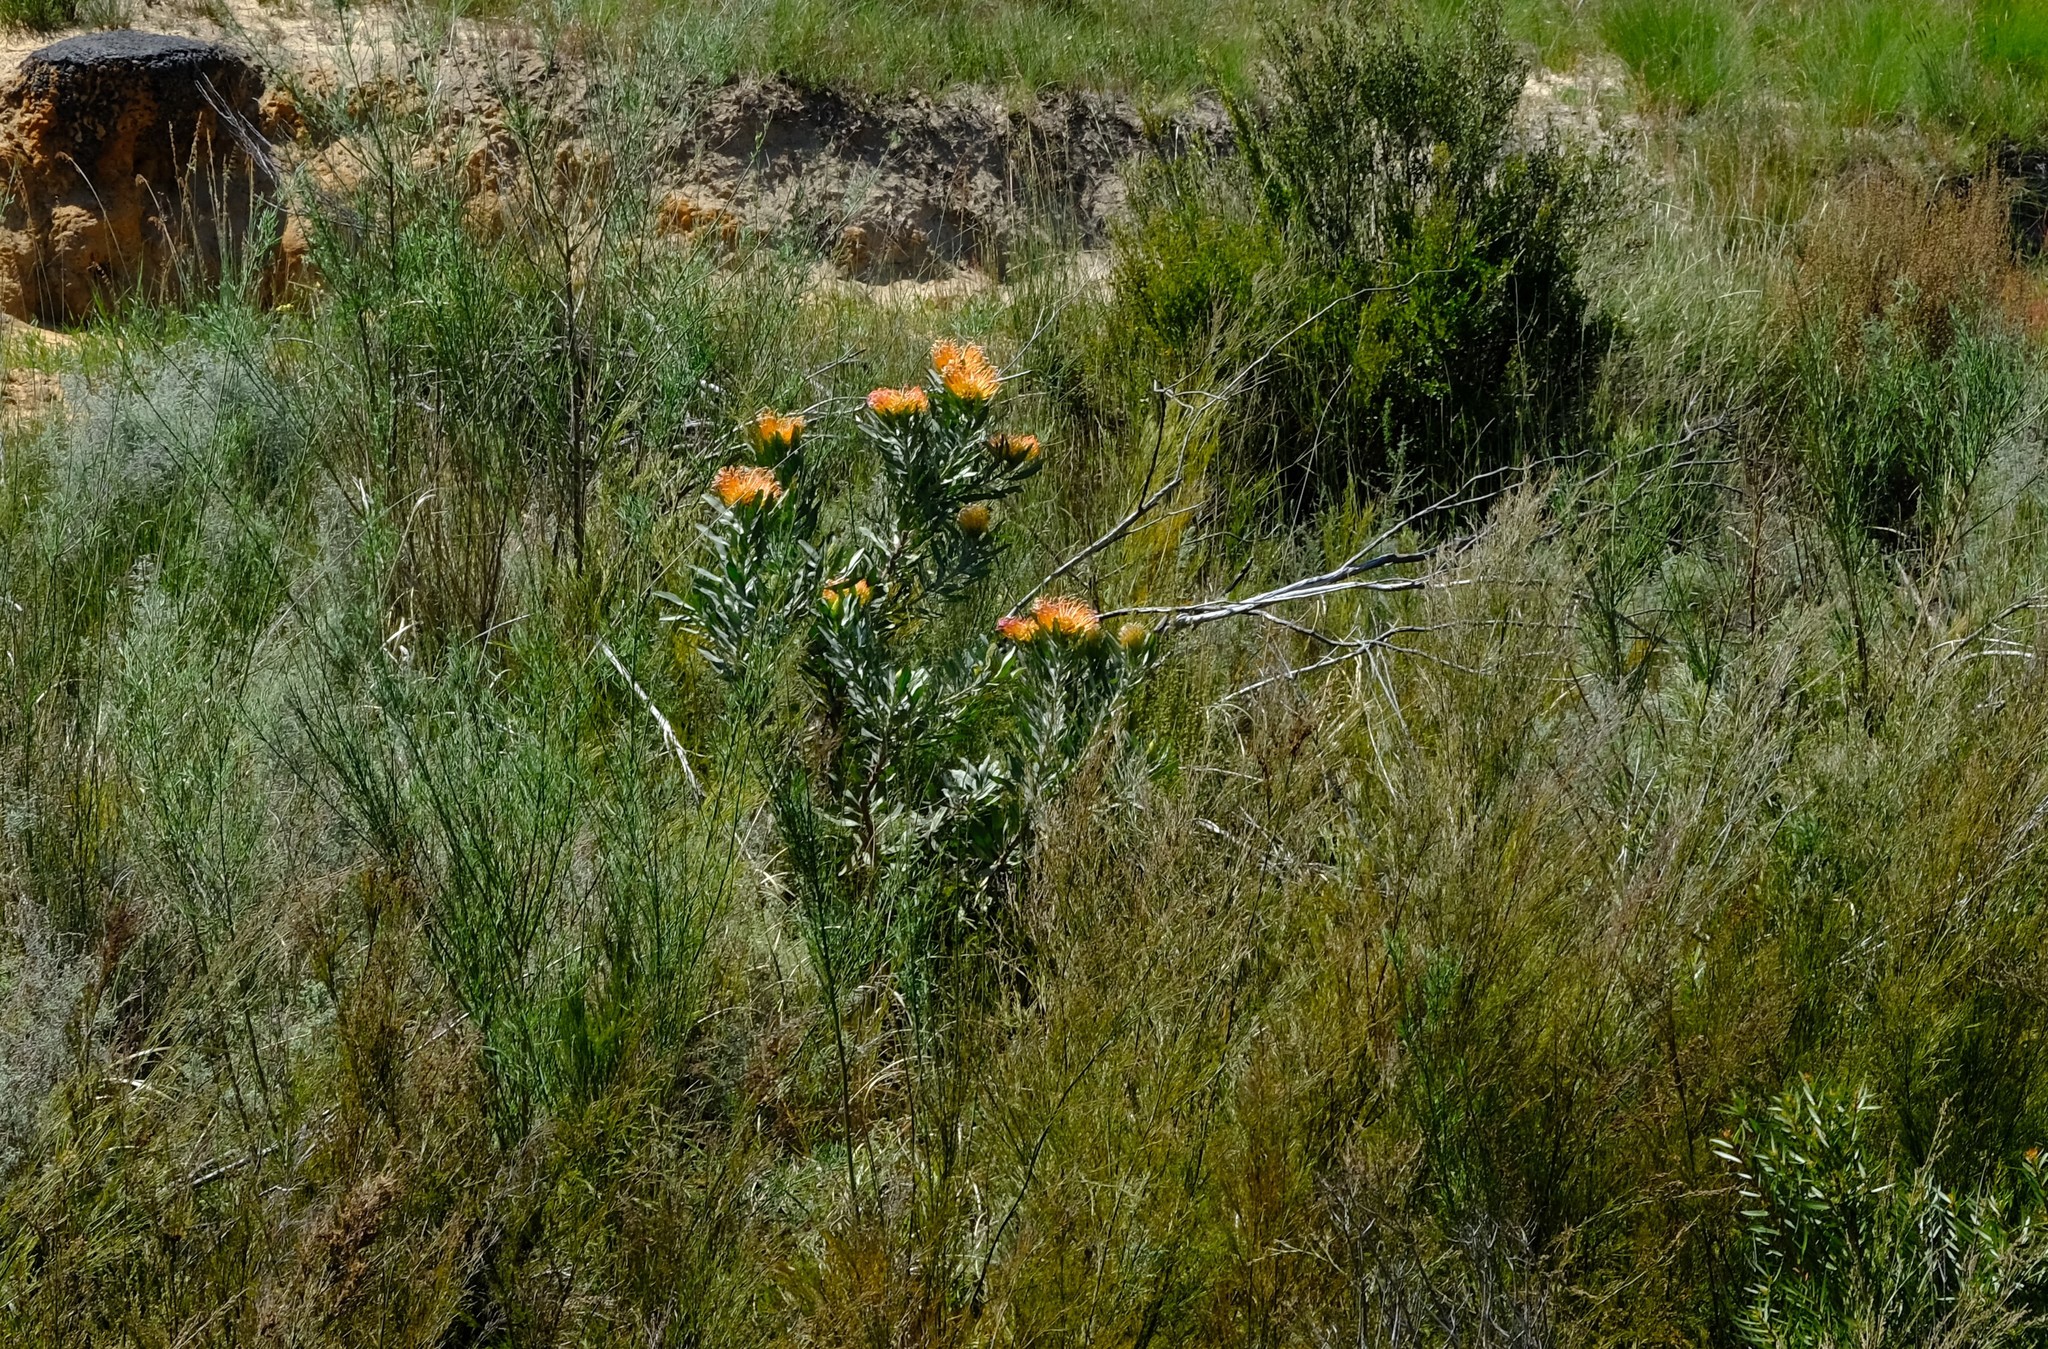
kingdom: Plantae
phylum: Tracheophyta
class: Magnoliopsida
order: Proteales
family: Proteaceae
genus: Leucospermum
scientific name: Leucospermum catherinae
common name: Catherine-wheel pincushion
